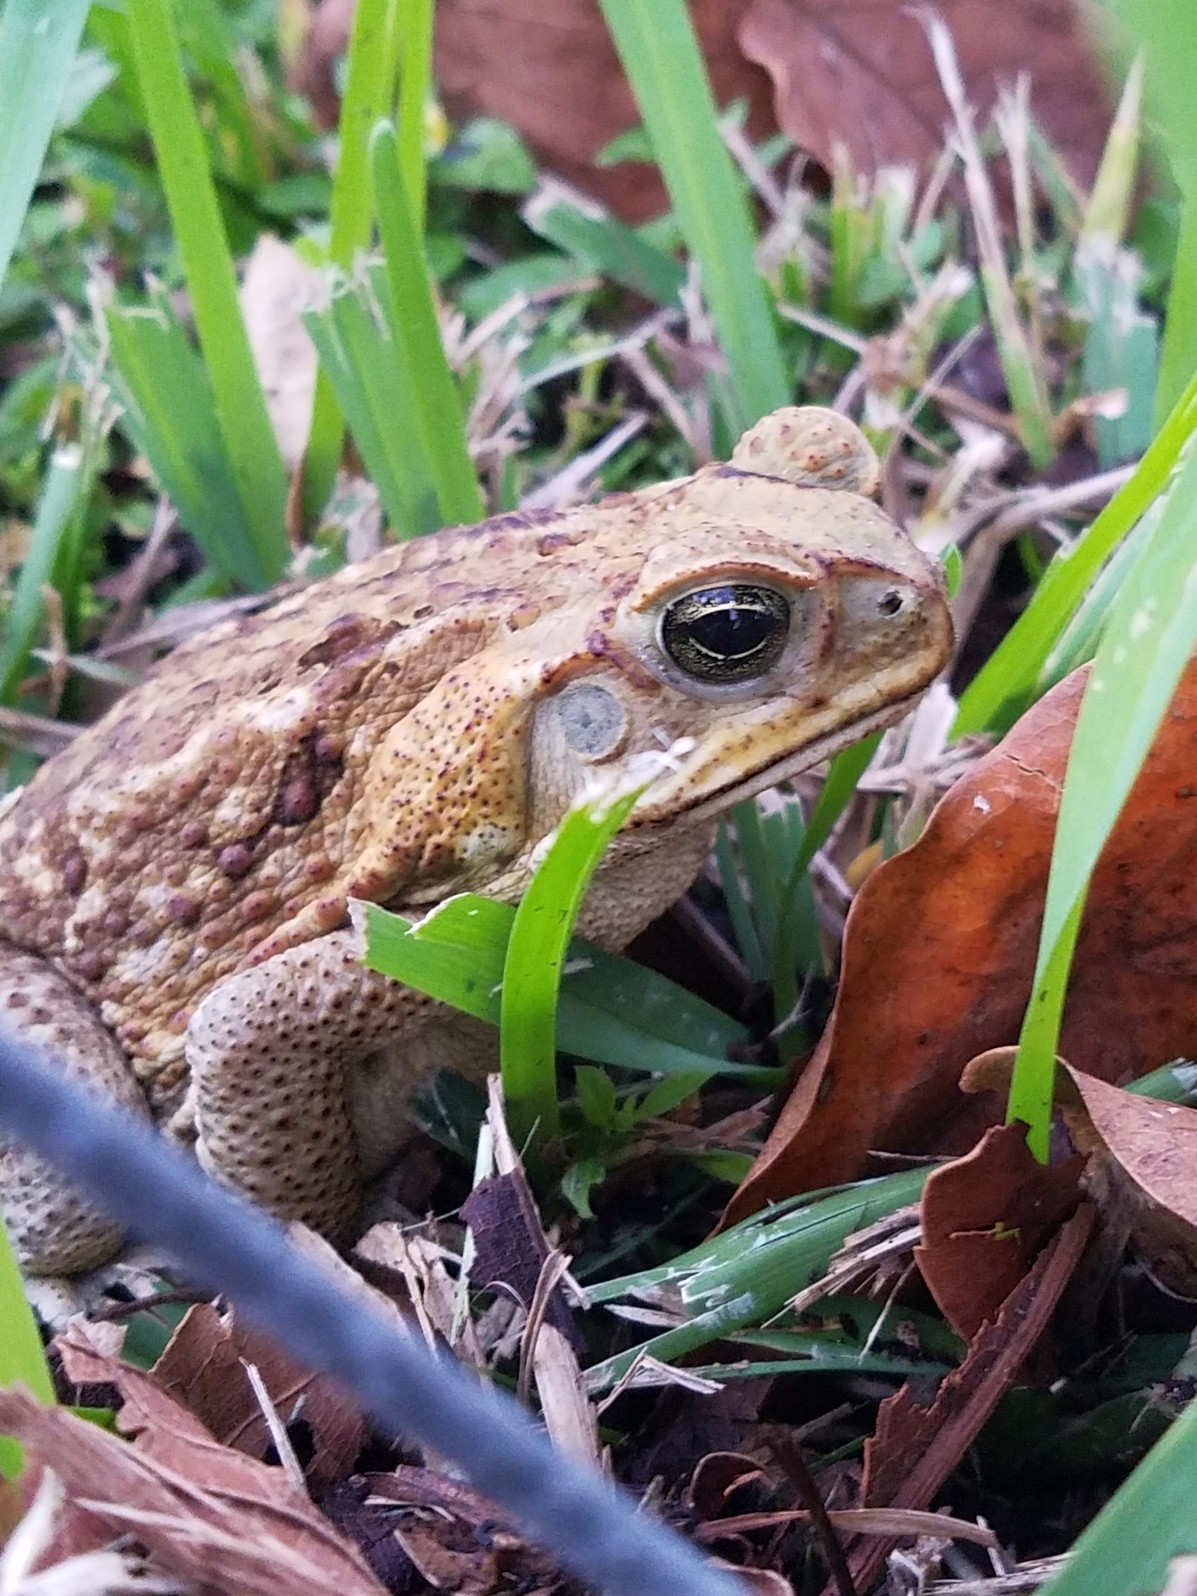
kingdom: Animalia
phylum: Chordata
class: Amphibia
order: Anura
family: Bufonidae
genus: Rhinella
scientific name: Rhinella marina
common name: Cane toad
